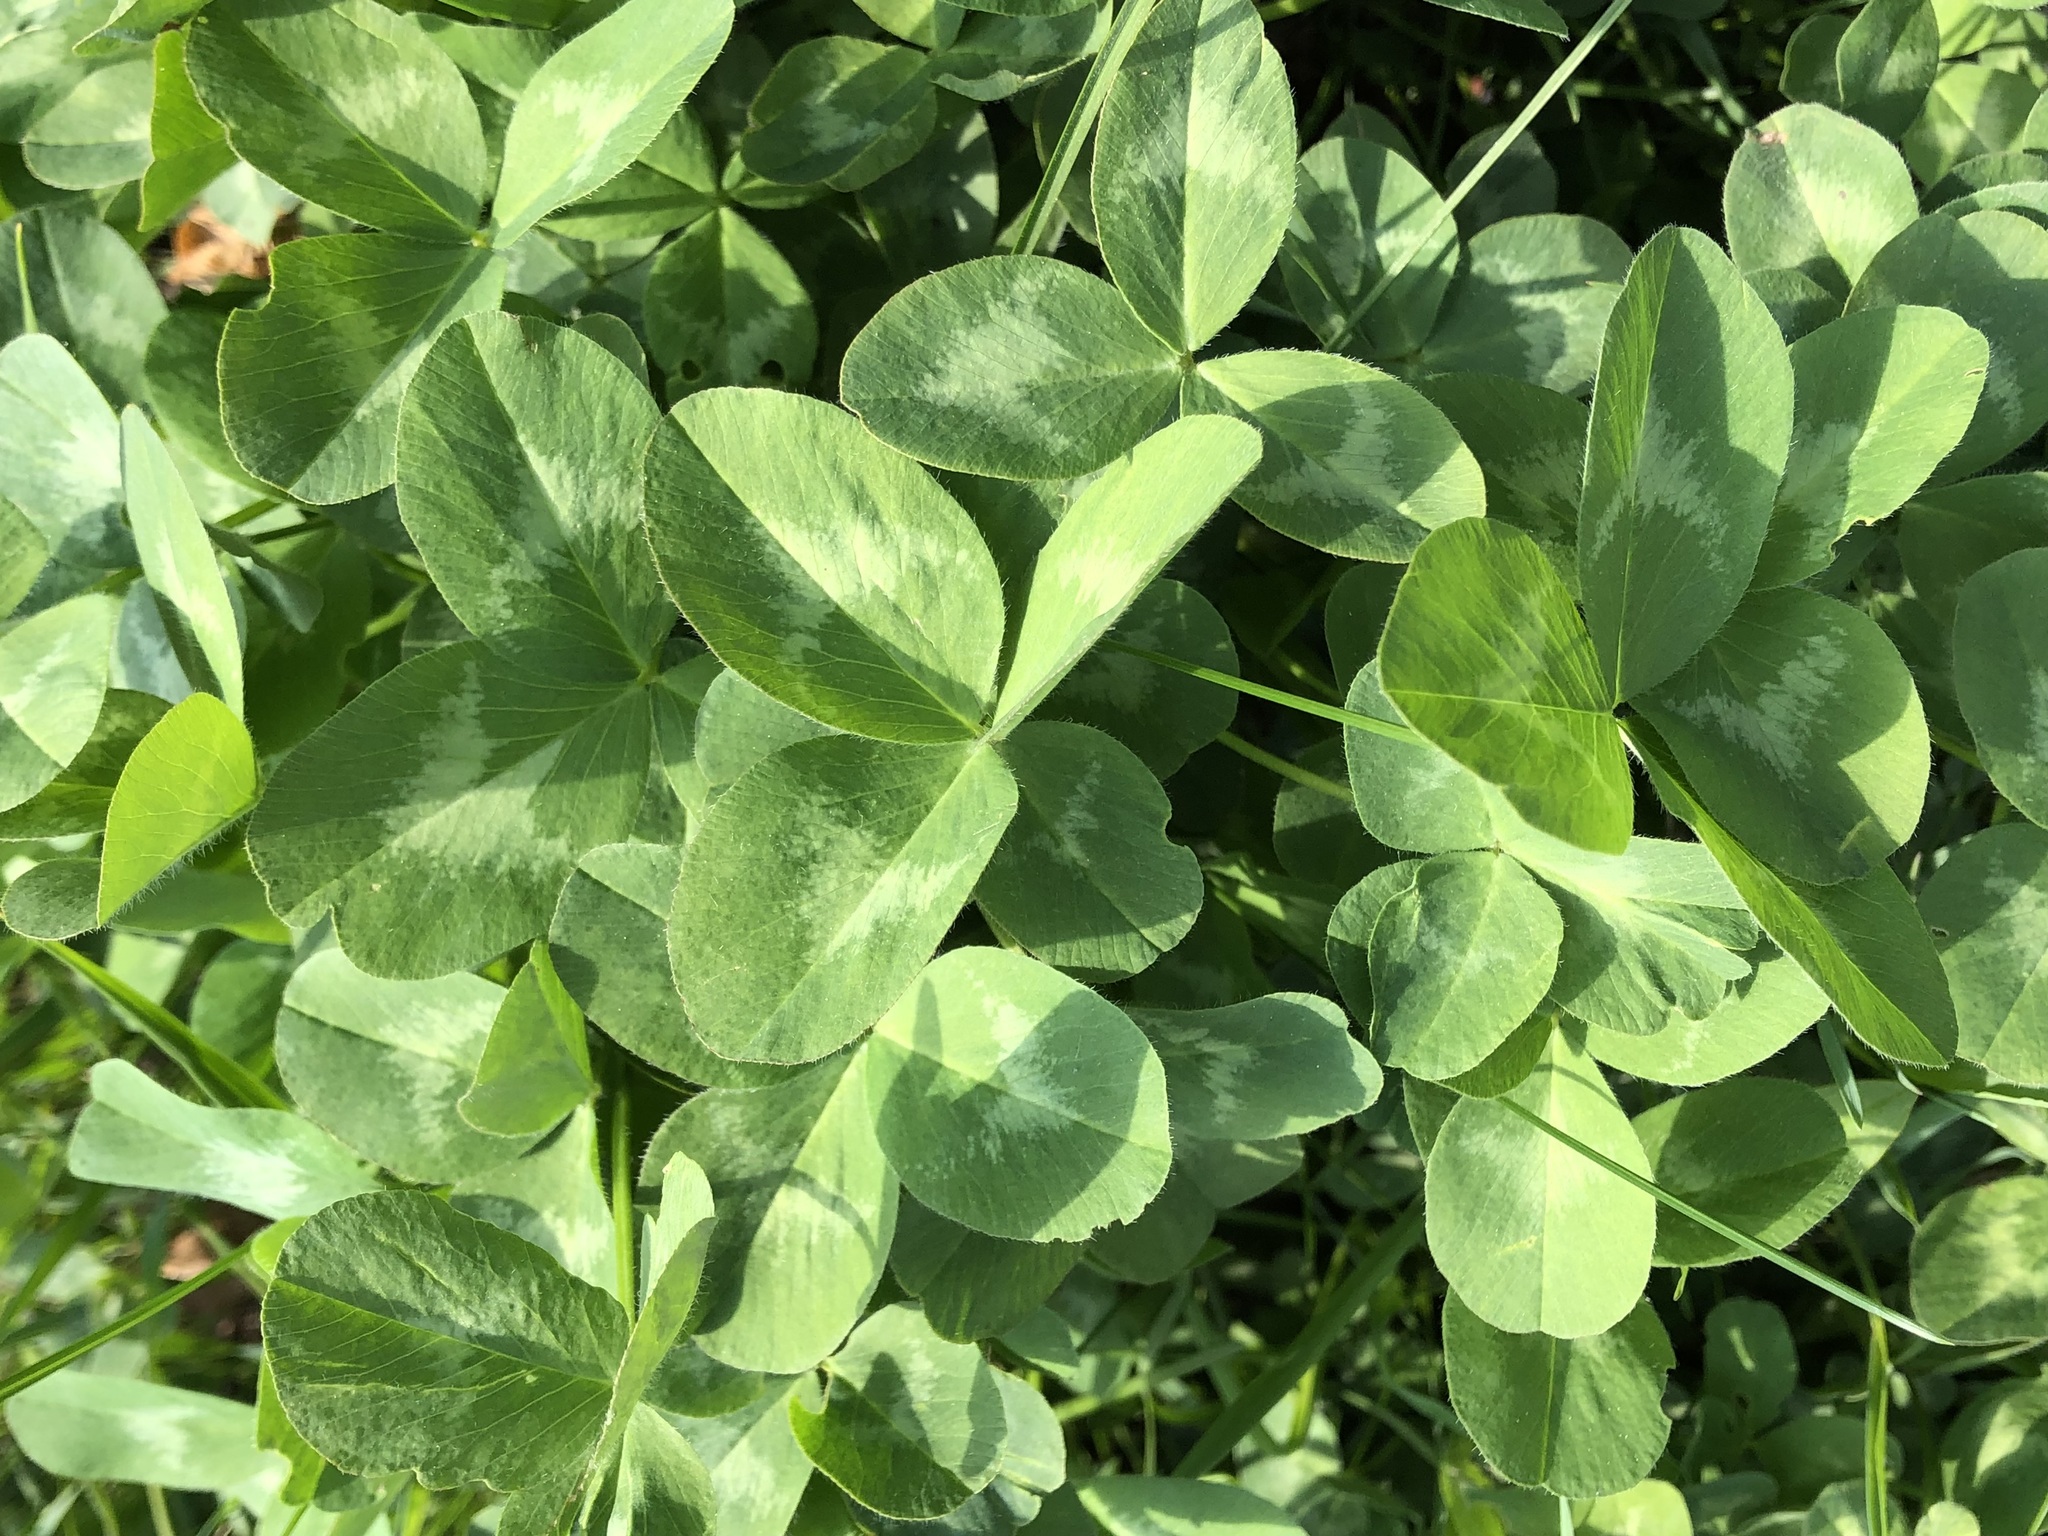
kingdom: Plantae
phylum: Tracheophyta
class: Magnoliopsida
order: Fabales
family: Fabaceae
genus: Trifolium
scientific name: Trifolium pratense
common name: Red clover
